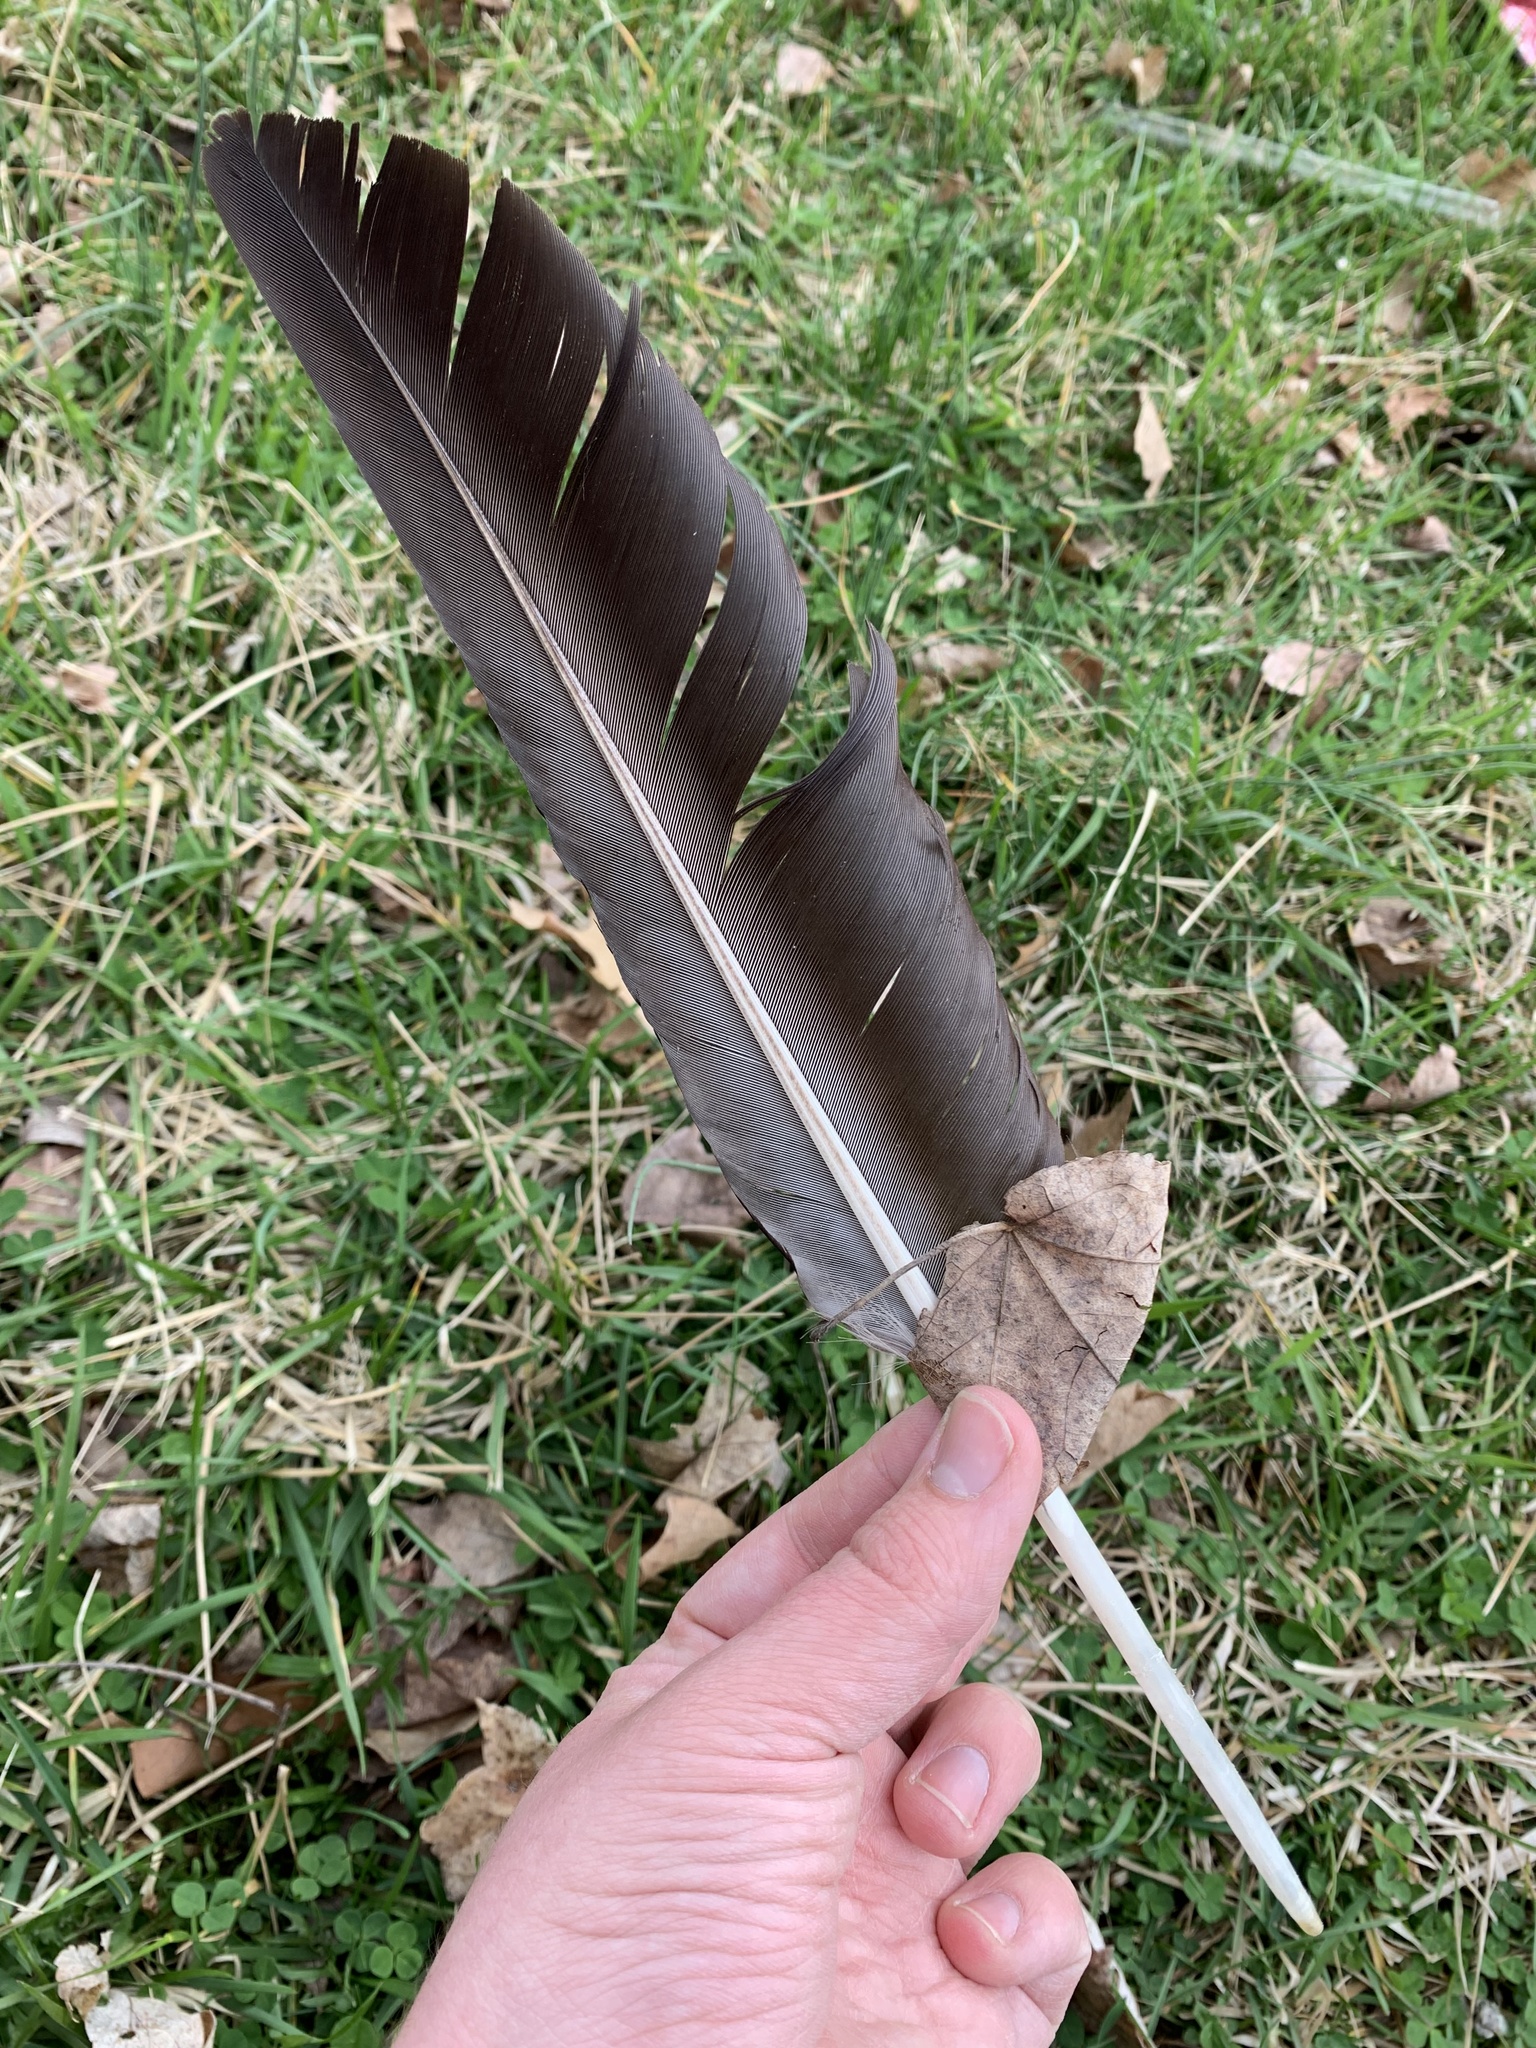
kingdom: Animalia
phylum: Chordata
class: Aves
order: Accipitriformes
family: Cathartidae
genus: Coragyps
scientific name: Coragyps atratus
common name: Black vulture
